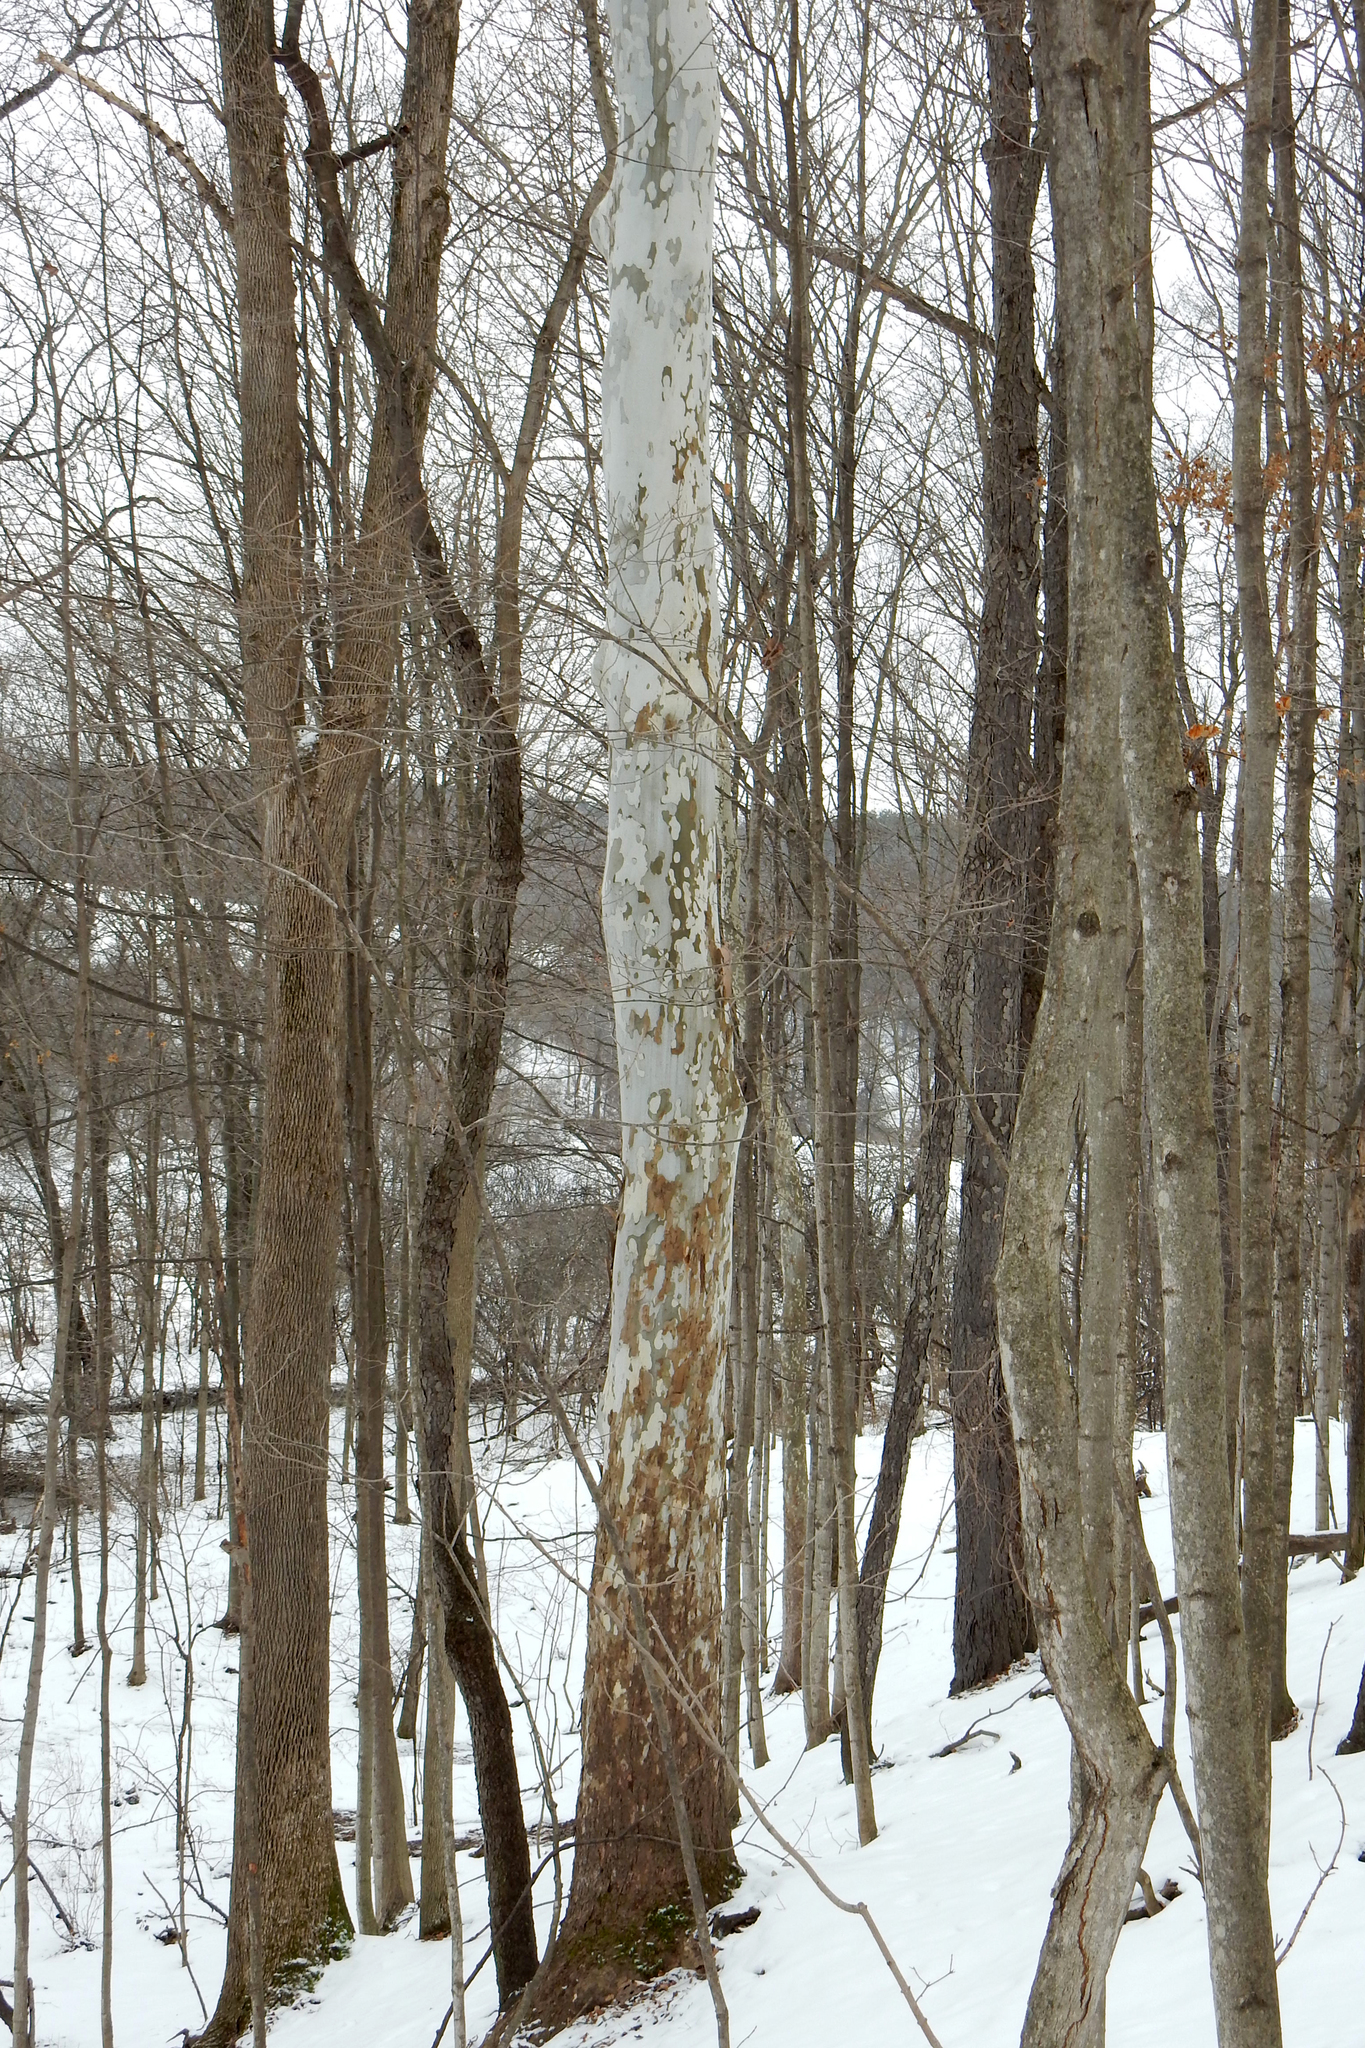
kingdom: Plantae
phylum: Tracheophyta
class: Magnoliopsida
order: Proteales
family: Platanaceae
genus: Platanus
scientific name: Platanus occidentalis
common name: American sycamore
